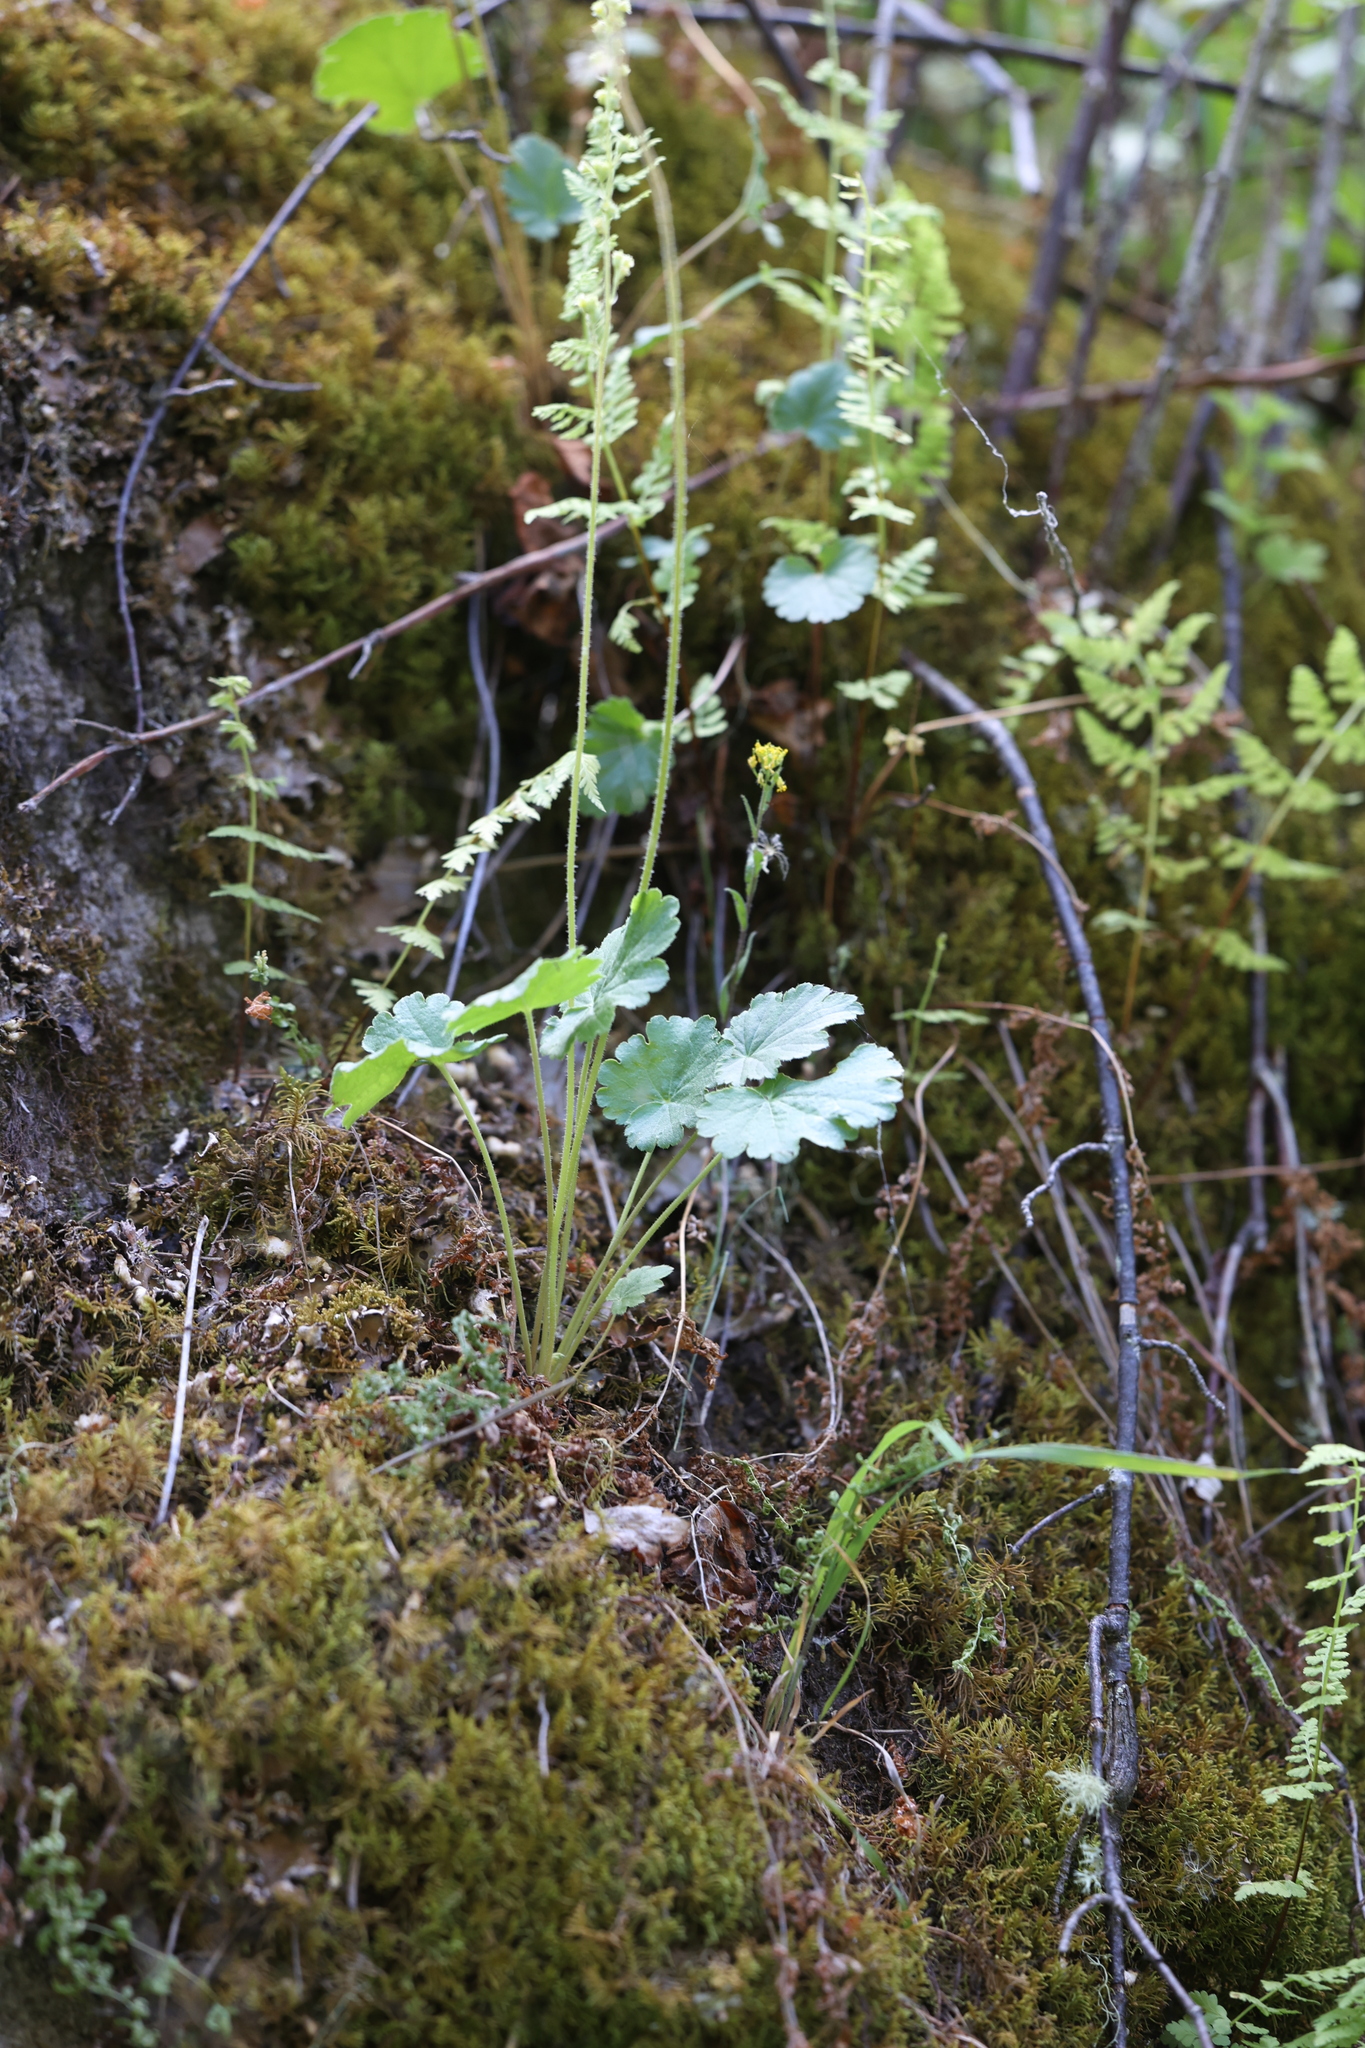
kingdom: Plantae
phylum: Tracheophyta
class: Magnoliopsida
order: Saxifragales
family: Saxifragaceae
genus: Heuchera
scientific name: Heuchera parvifolia
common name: Common alumroot
